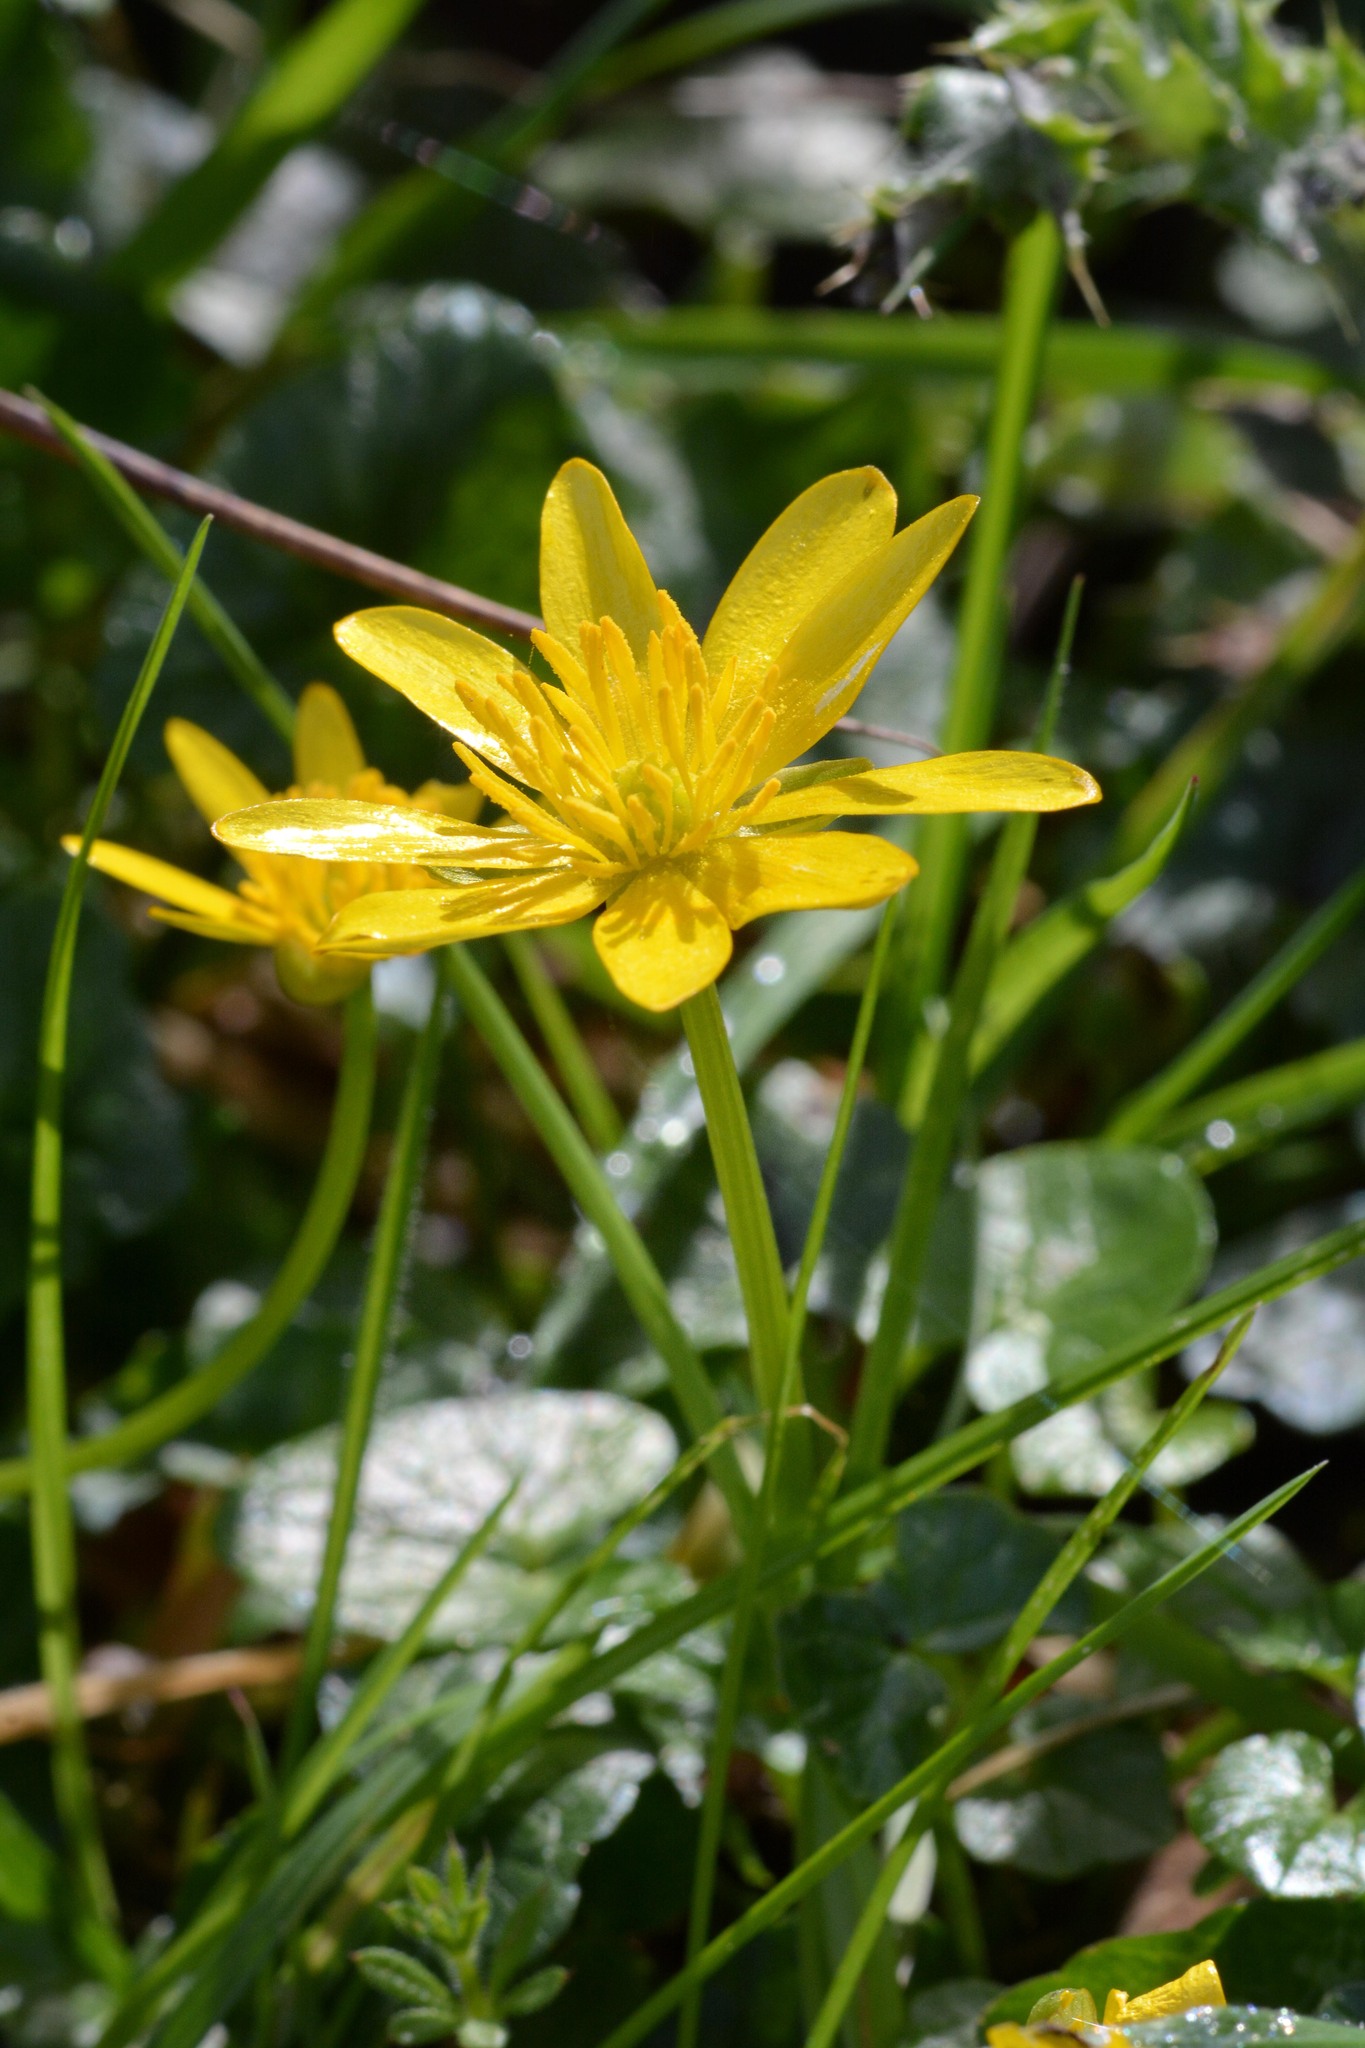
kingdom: Plantae
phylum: Tracheophyta
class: Magnoliopsida
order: Ranunculales
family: Ranunculaceae
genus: Ficaria
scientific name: Ficaria verna
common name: Lesser celandine
